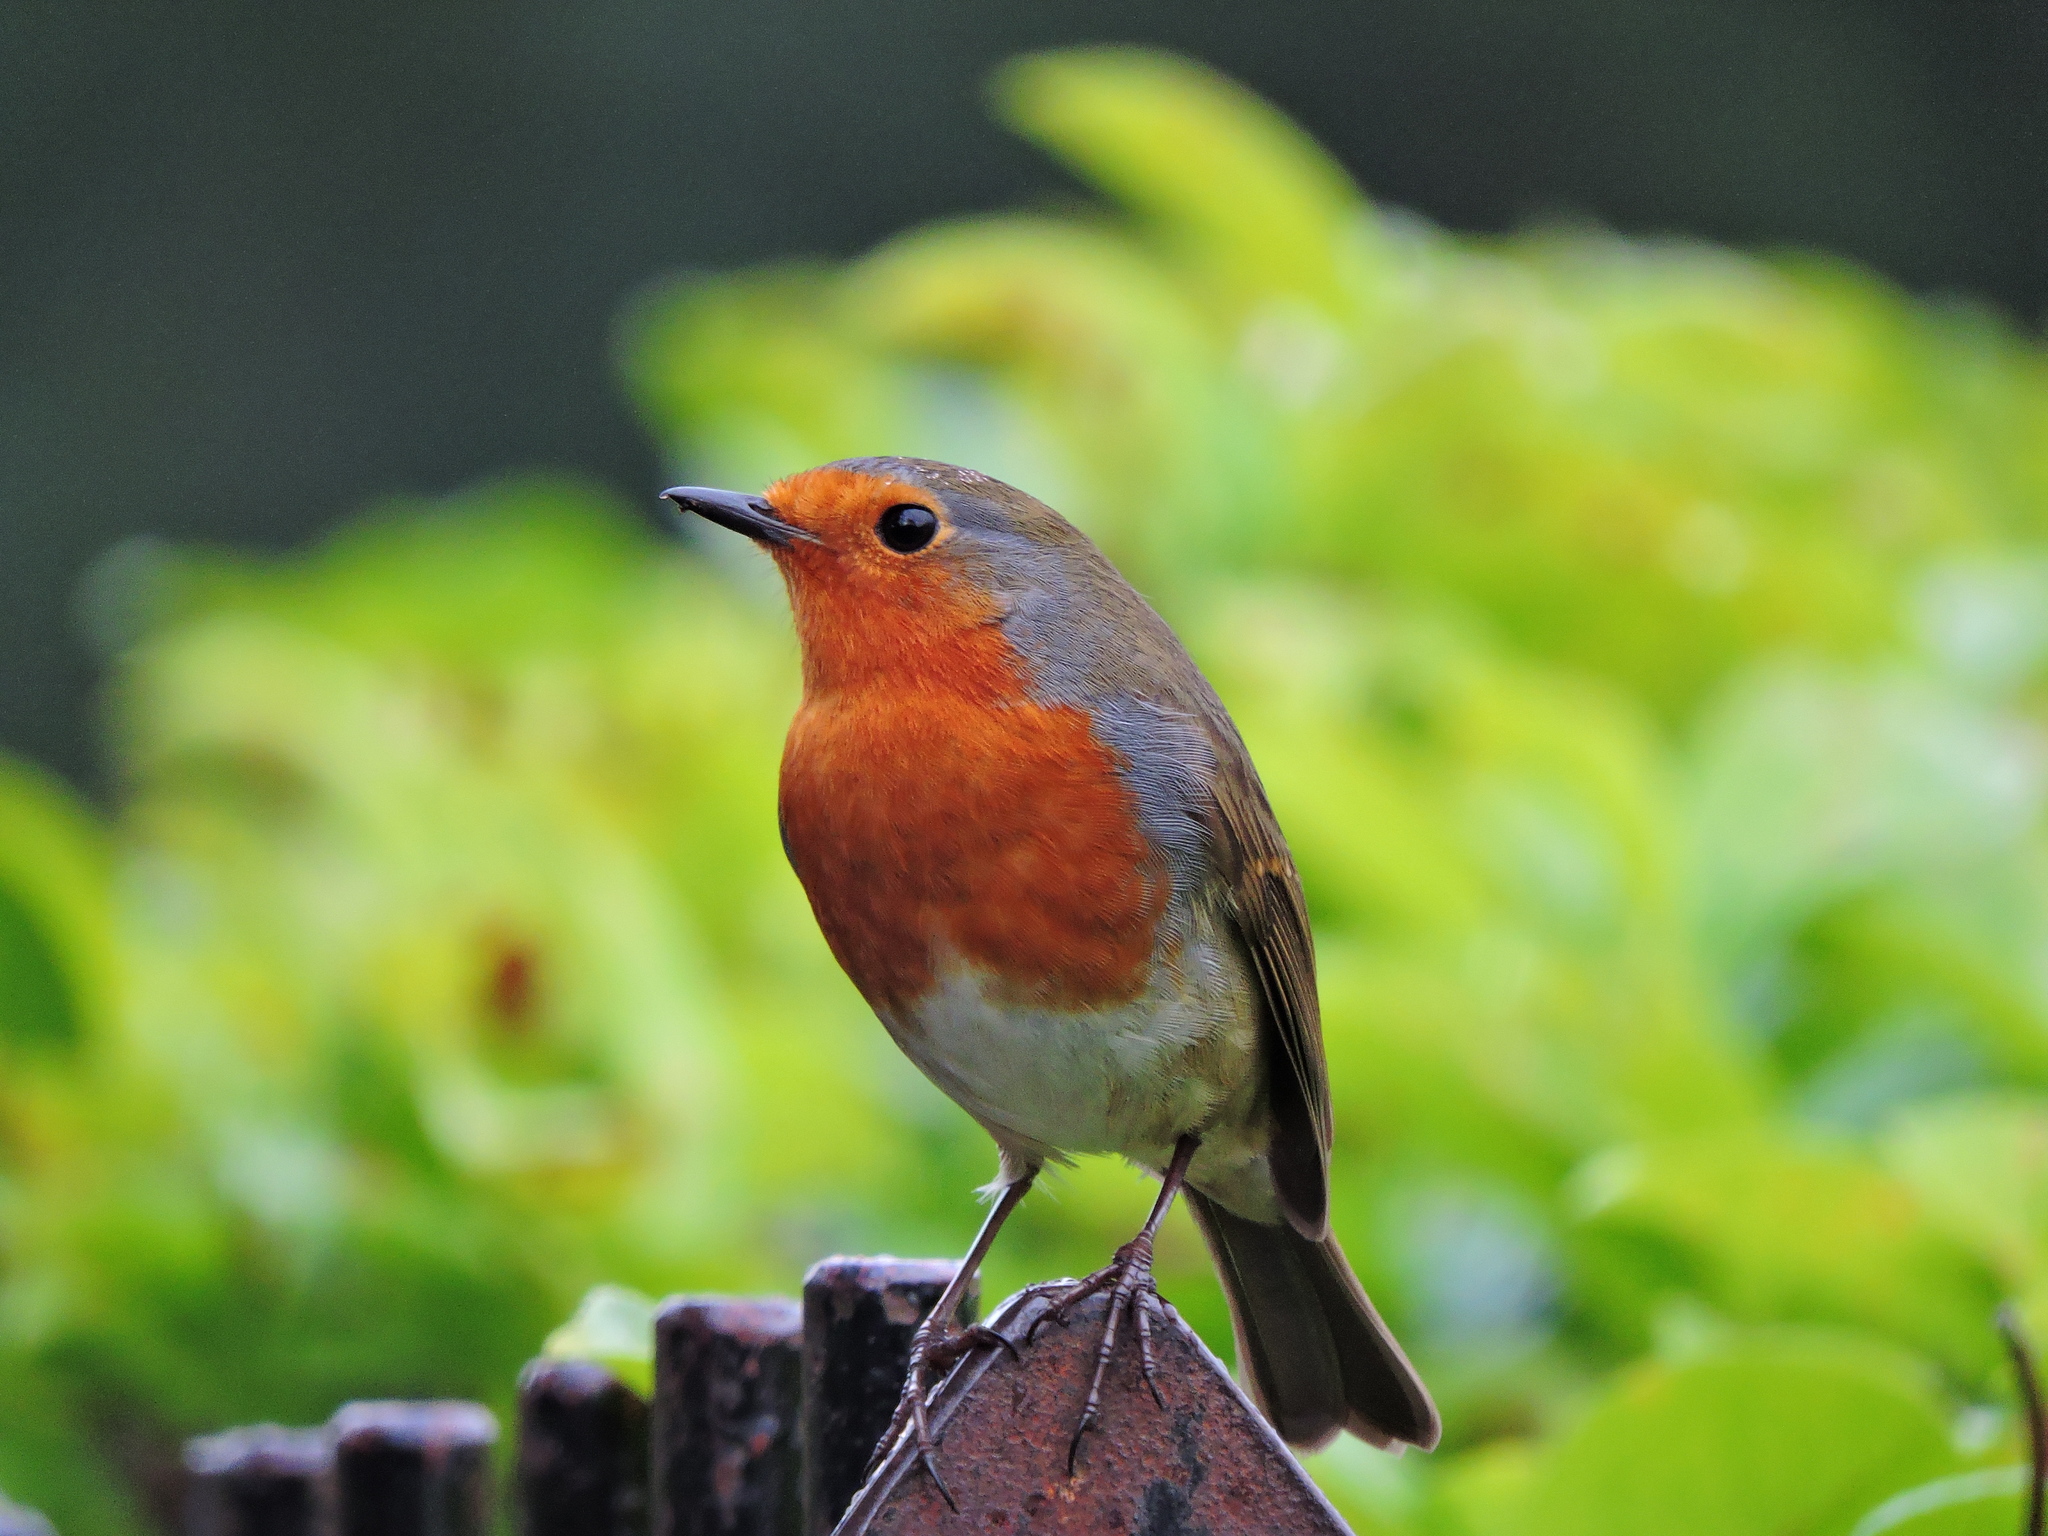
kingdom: Animalia
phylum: Chordata
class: Aves
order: Passeriformes
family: Muscicapidae
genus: Erithacus
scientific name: Erithacus rubecula
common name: European robin
